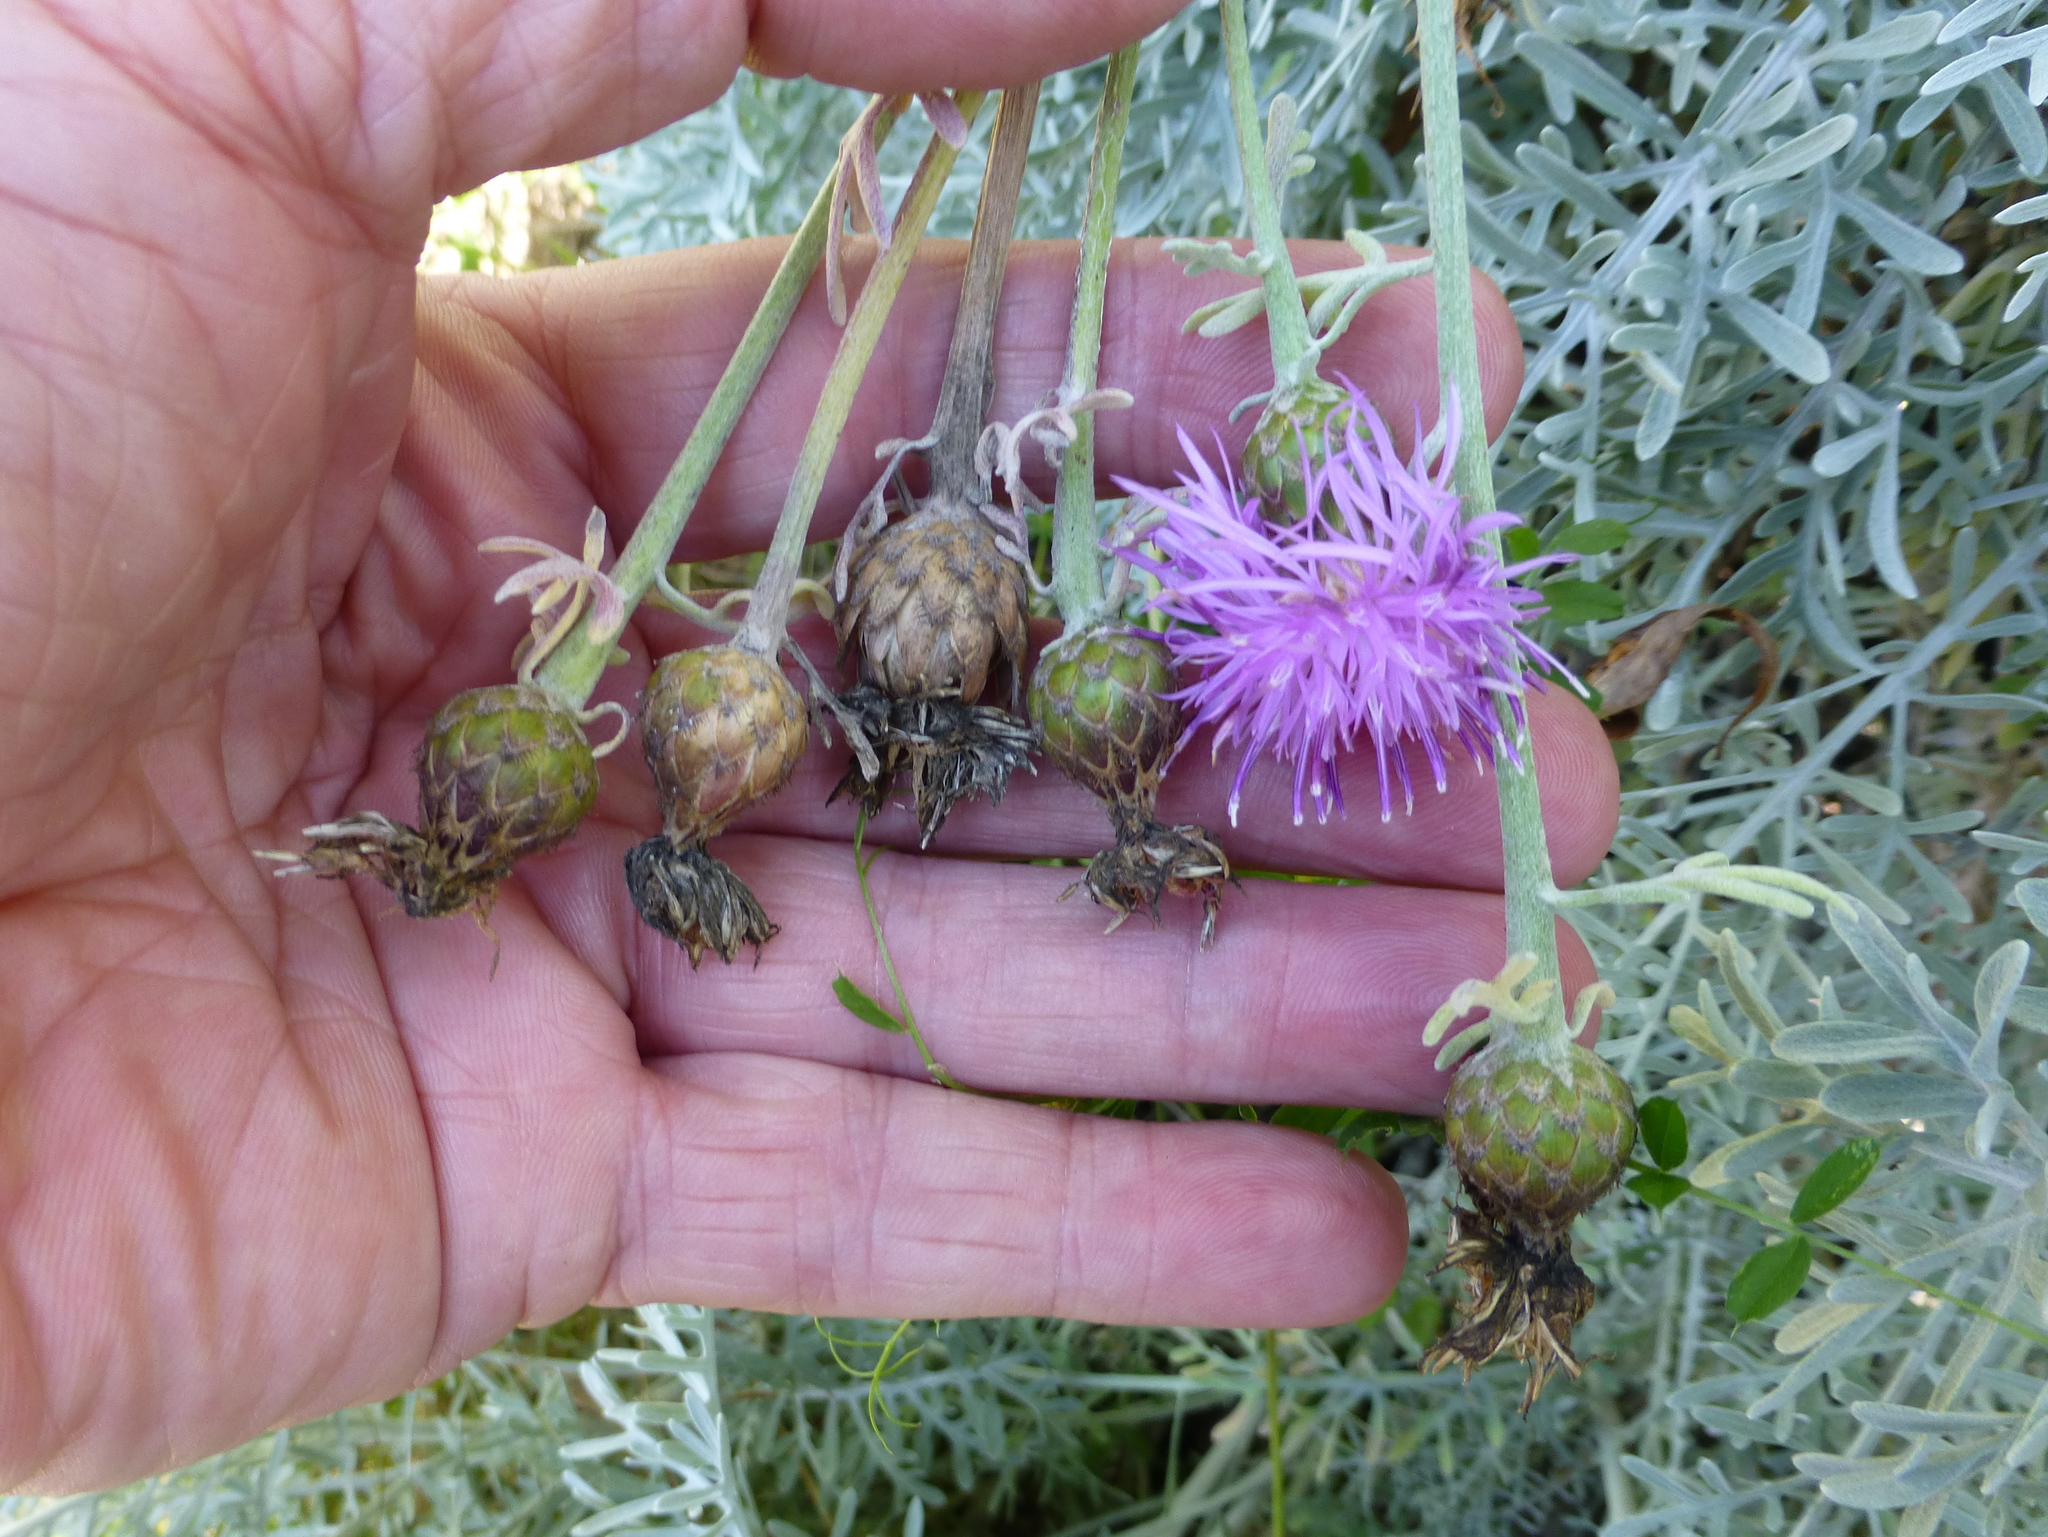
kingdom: Plantae
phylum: Tracheophyta
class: Magnoliopsida
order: Asterales
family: Asteraceae
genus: Centaurea
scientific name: Centaurea cineraria
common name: Dusty miller
